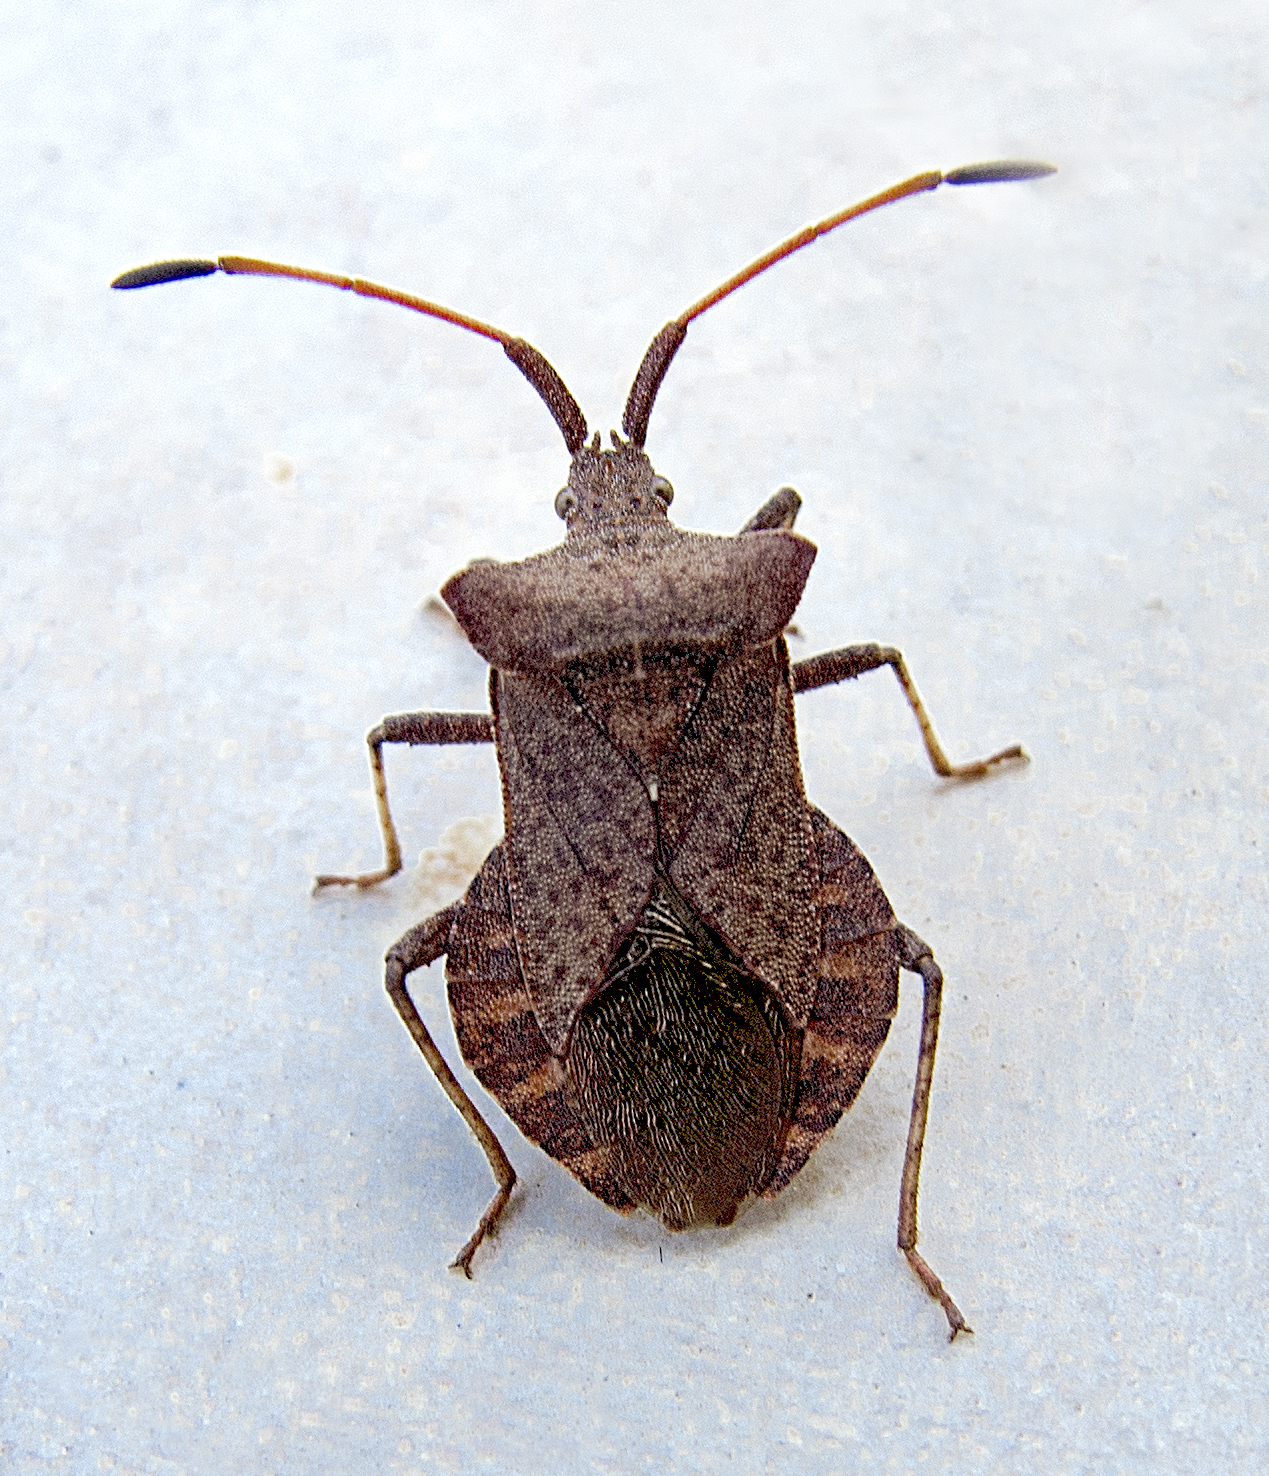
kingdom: Animalia
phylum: Arthropoda
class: Insecta
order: Hemiptera
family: Coreidae
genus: Coreus
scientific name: Coreus marginatus
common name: Dock bug
